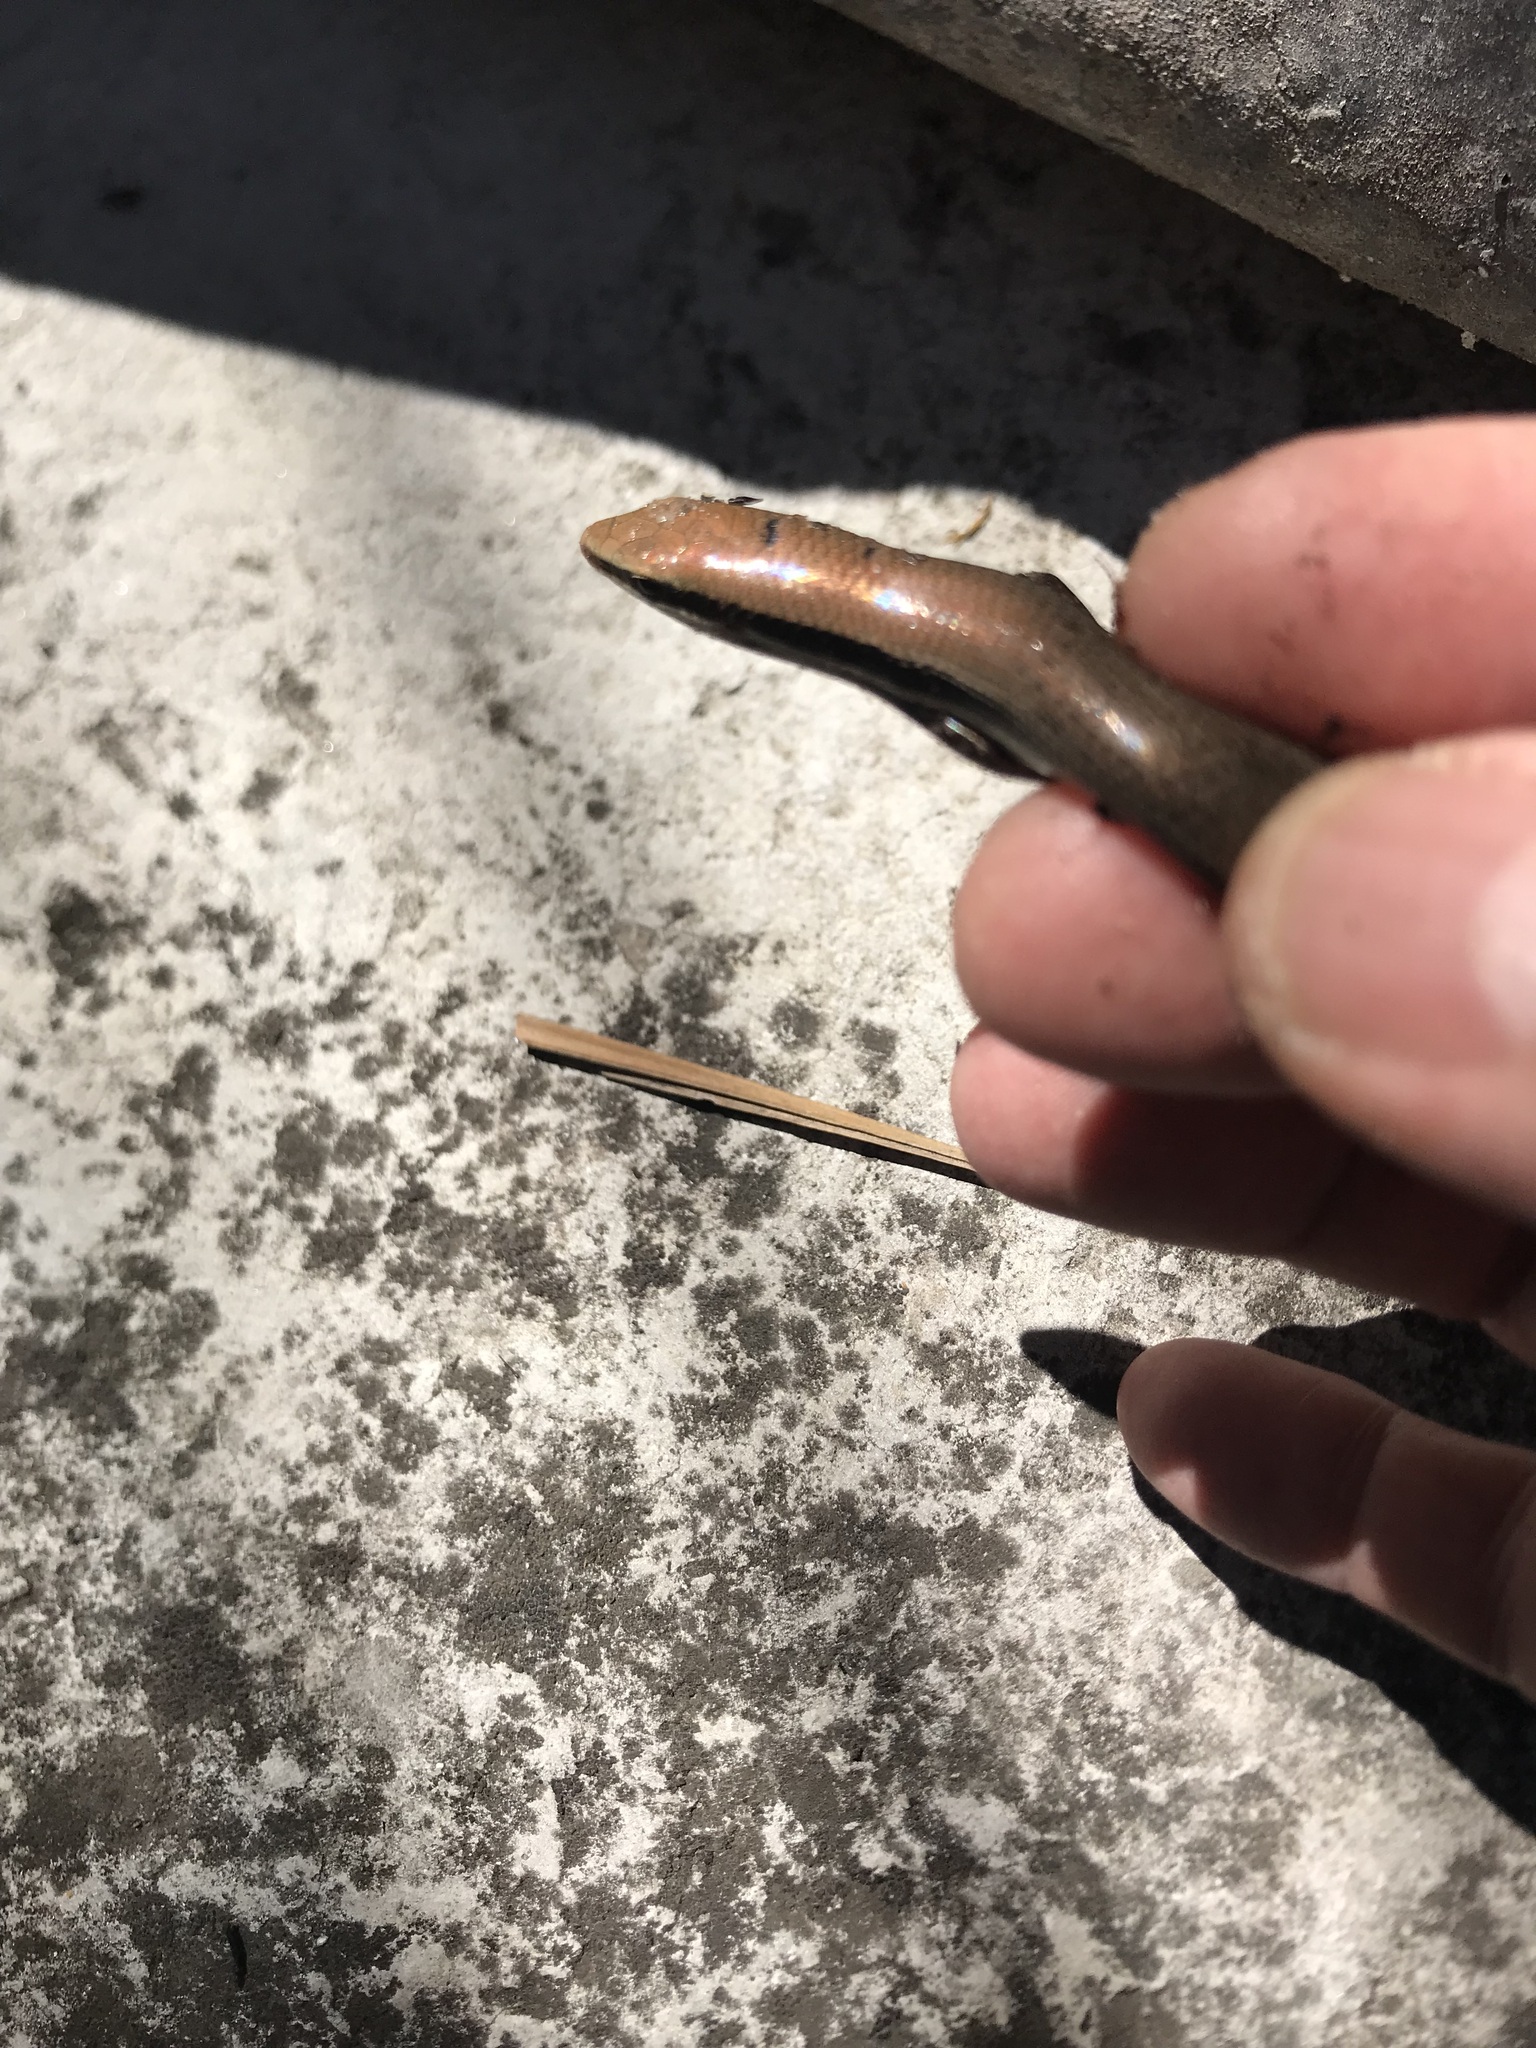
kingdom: Animalia
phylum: Chordata
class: Squamata
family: Scincidae
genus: Marisora
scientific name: Marisora aquilonaria
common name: Southern sierra madre skink
